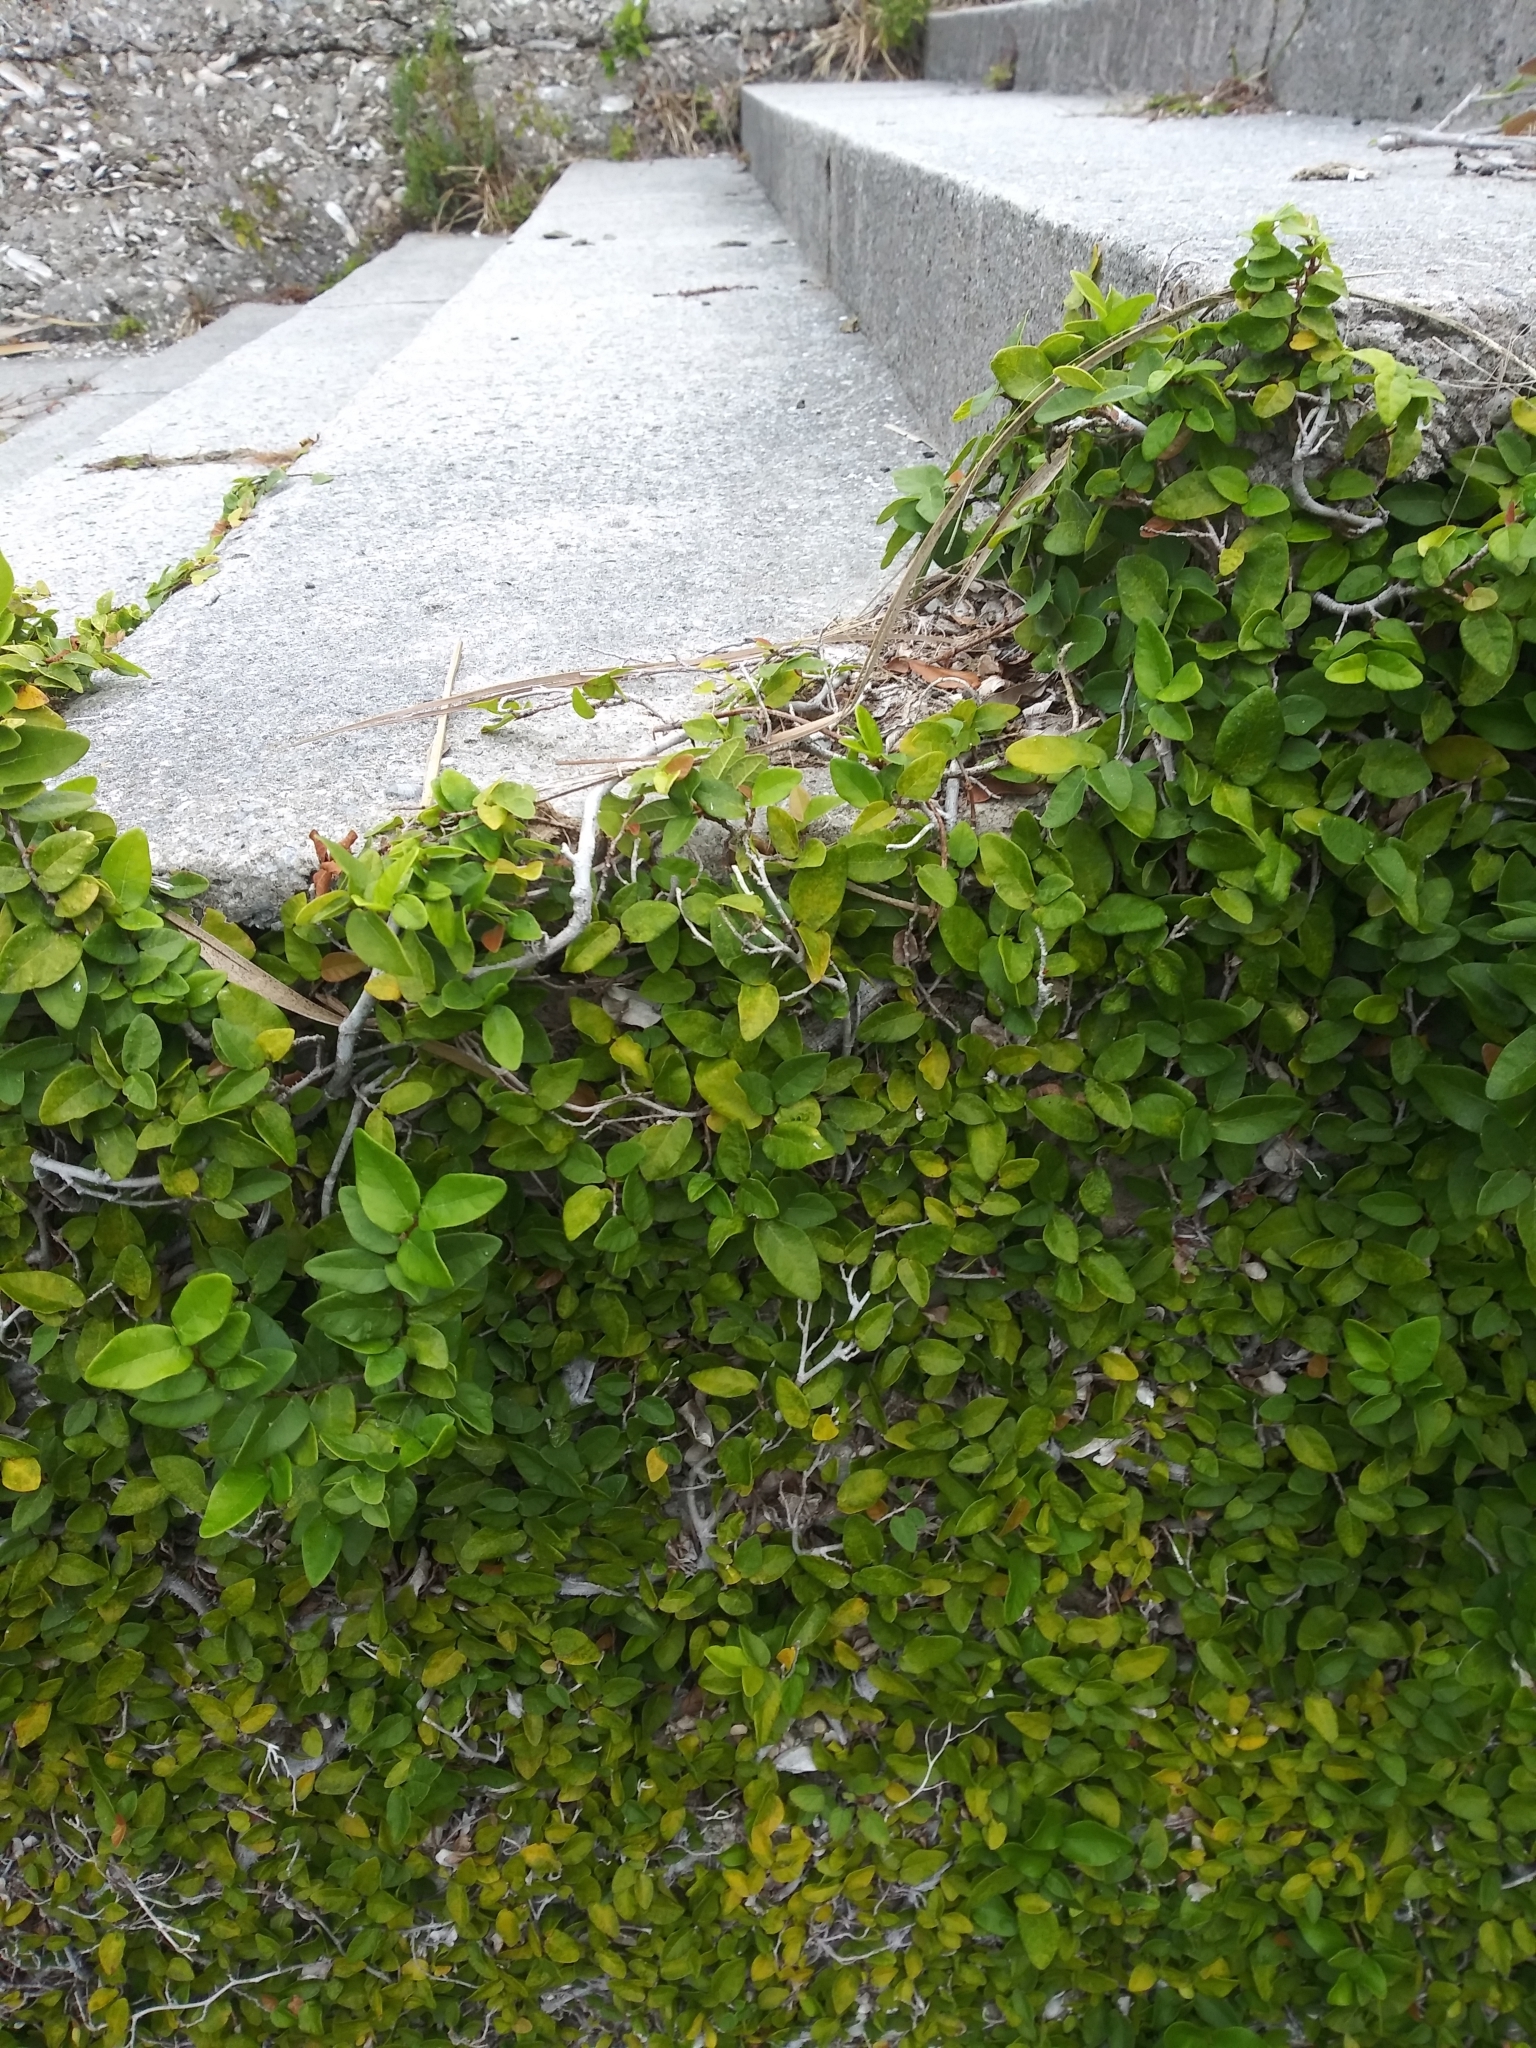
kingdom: Plantae
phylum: Tracheophyta
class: Magnoliopsida
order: Rosales
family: Moraceae
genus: Ficus
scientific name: Ficus pumila
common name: Climbingfig
